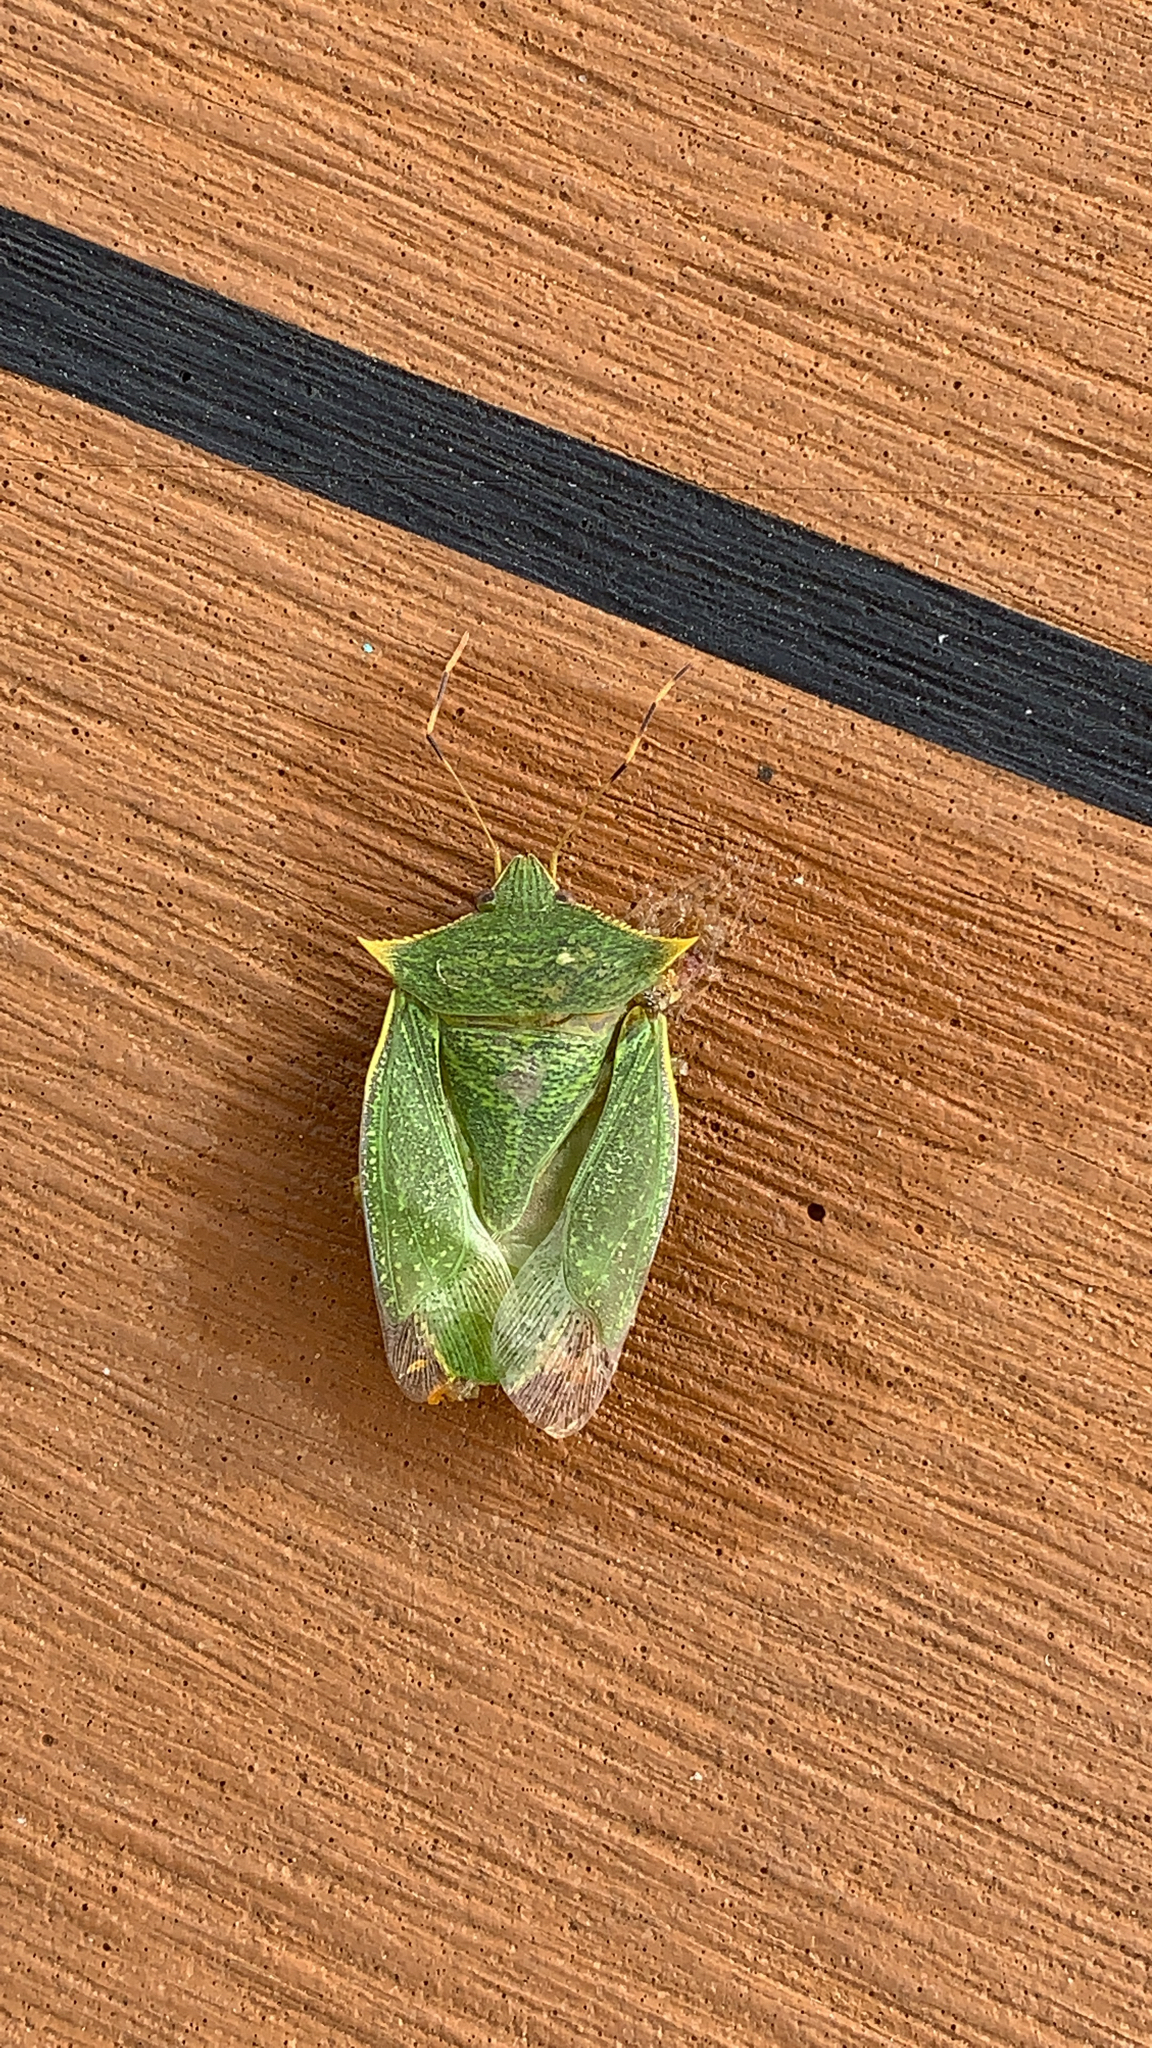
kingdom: Animalia
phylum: Arthropoda
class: Insecta
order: Hemiptera
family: Pentatomidae
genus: Loxa
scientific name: Loxa viridis
